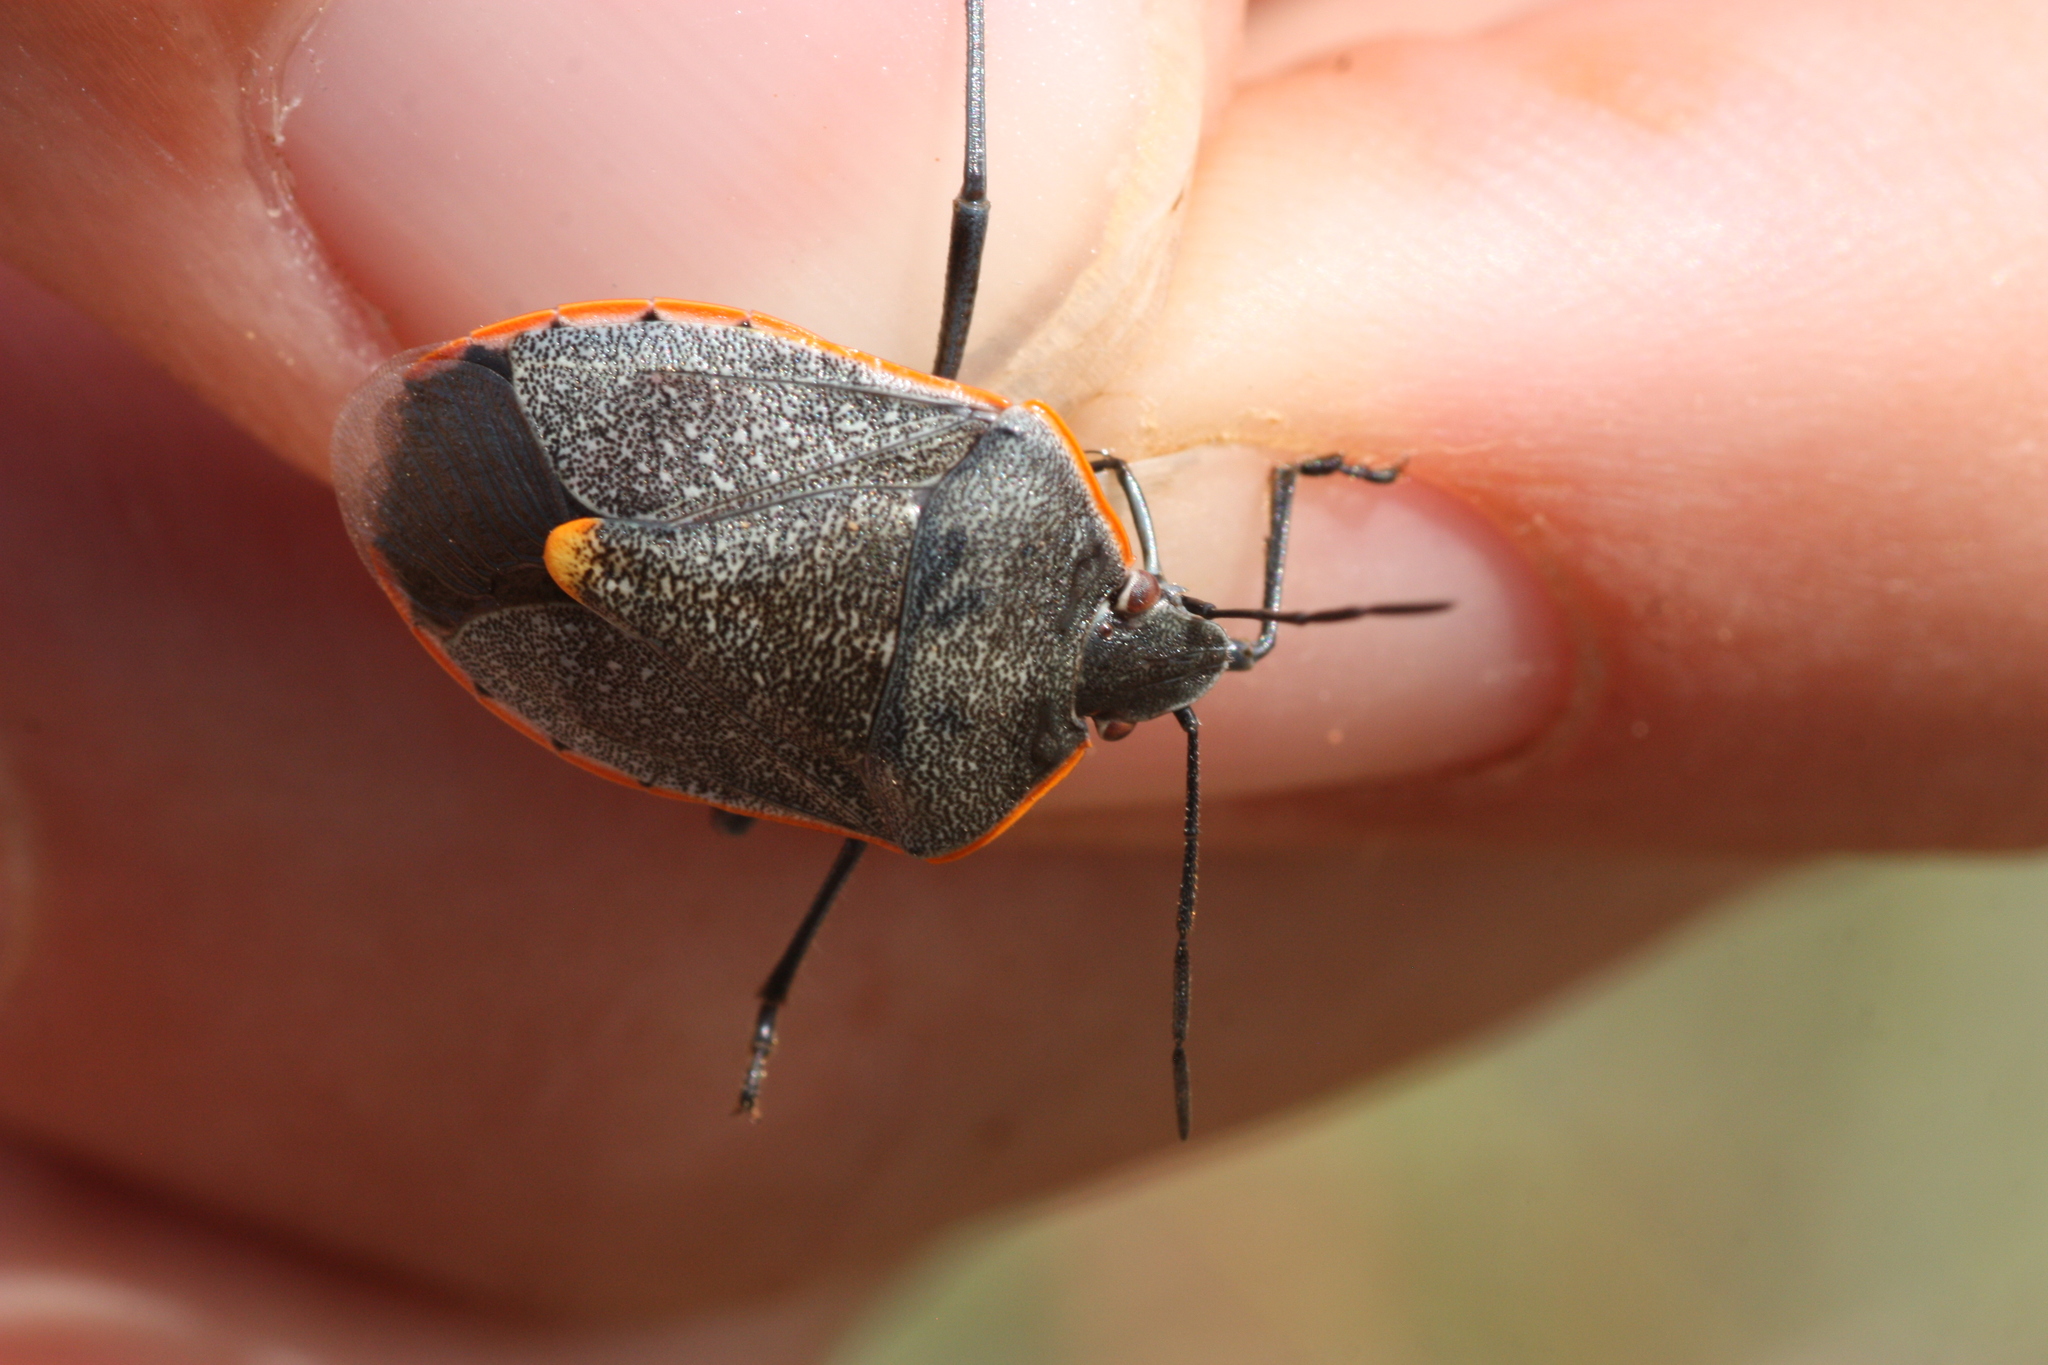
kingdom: Animalia
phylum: Arthropoda
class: Insecta
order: Hemiptera
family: Pentatomidae
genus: Chlorochroa
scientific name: Chlorochroa ligata
